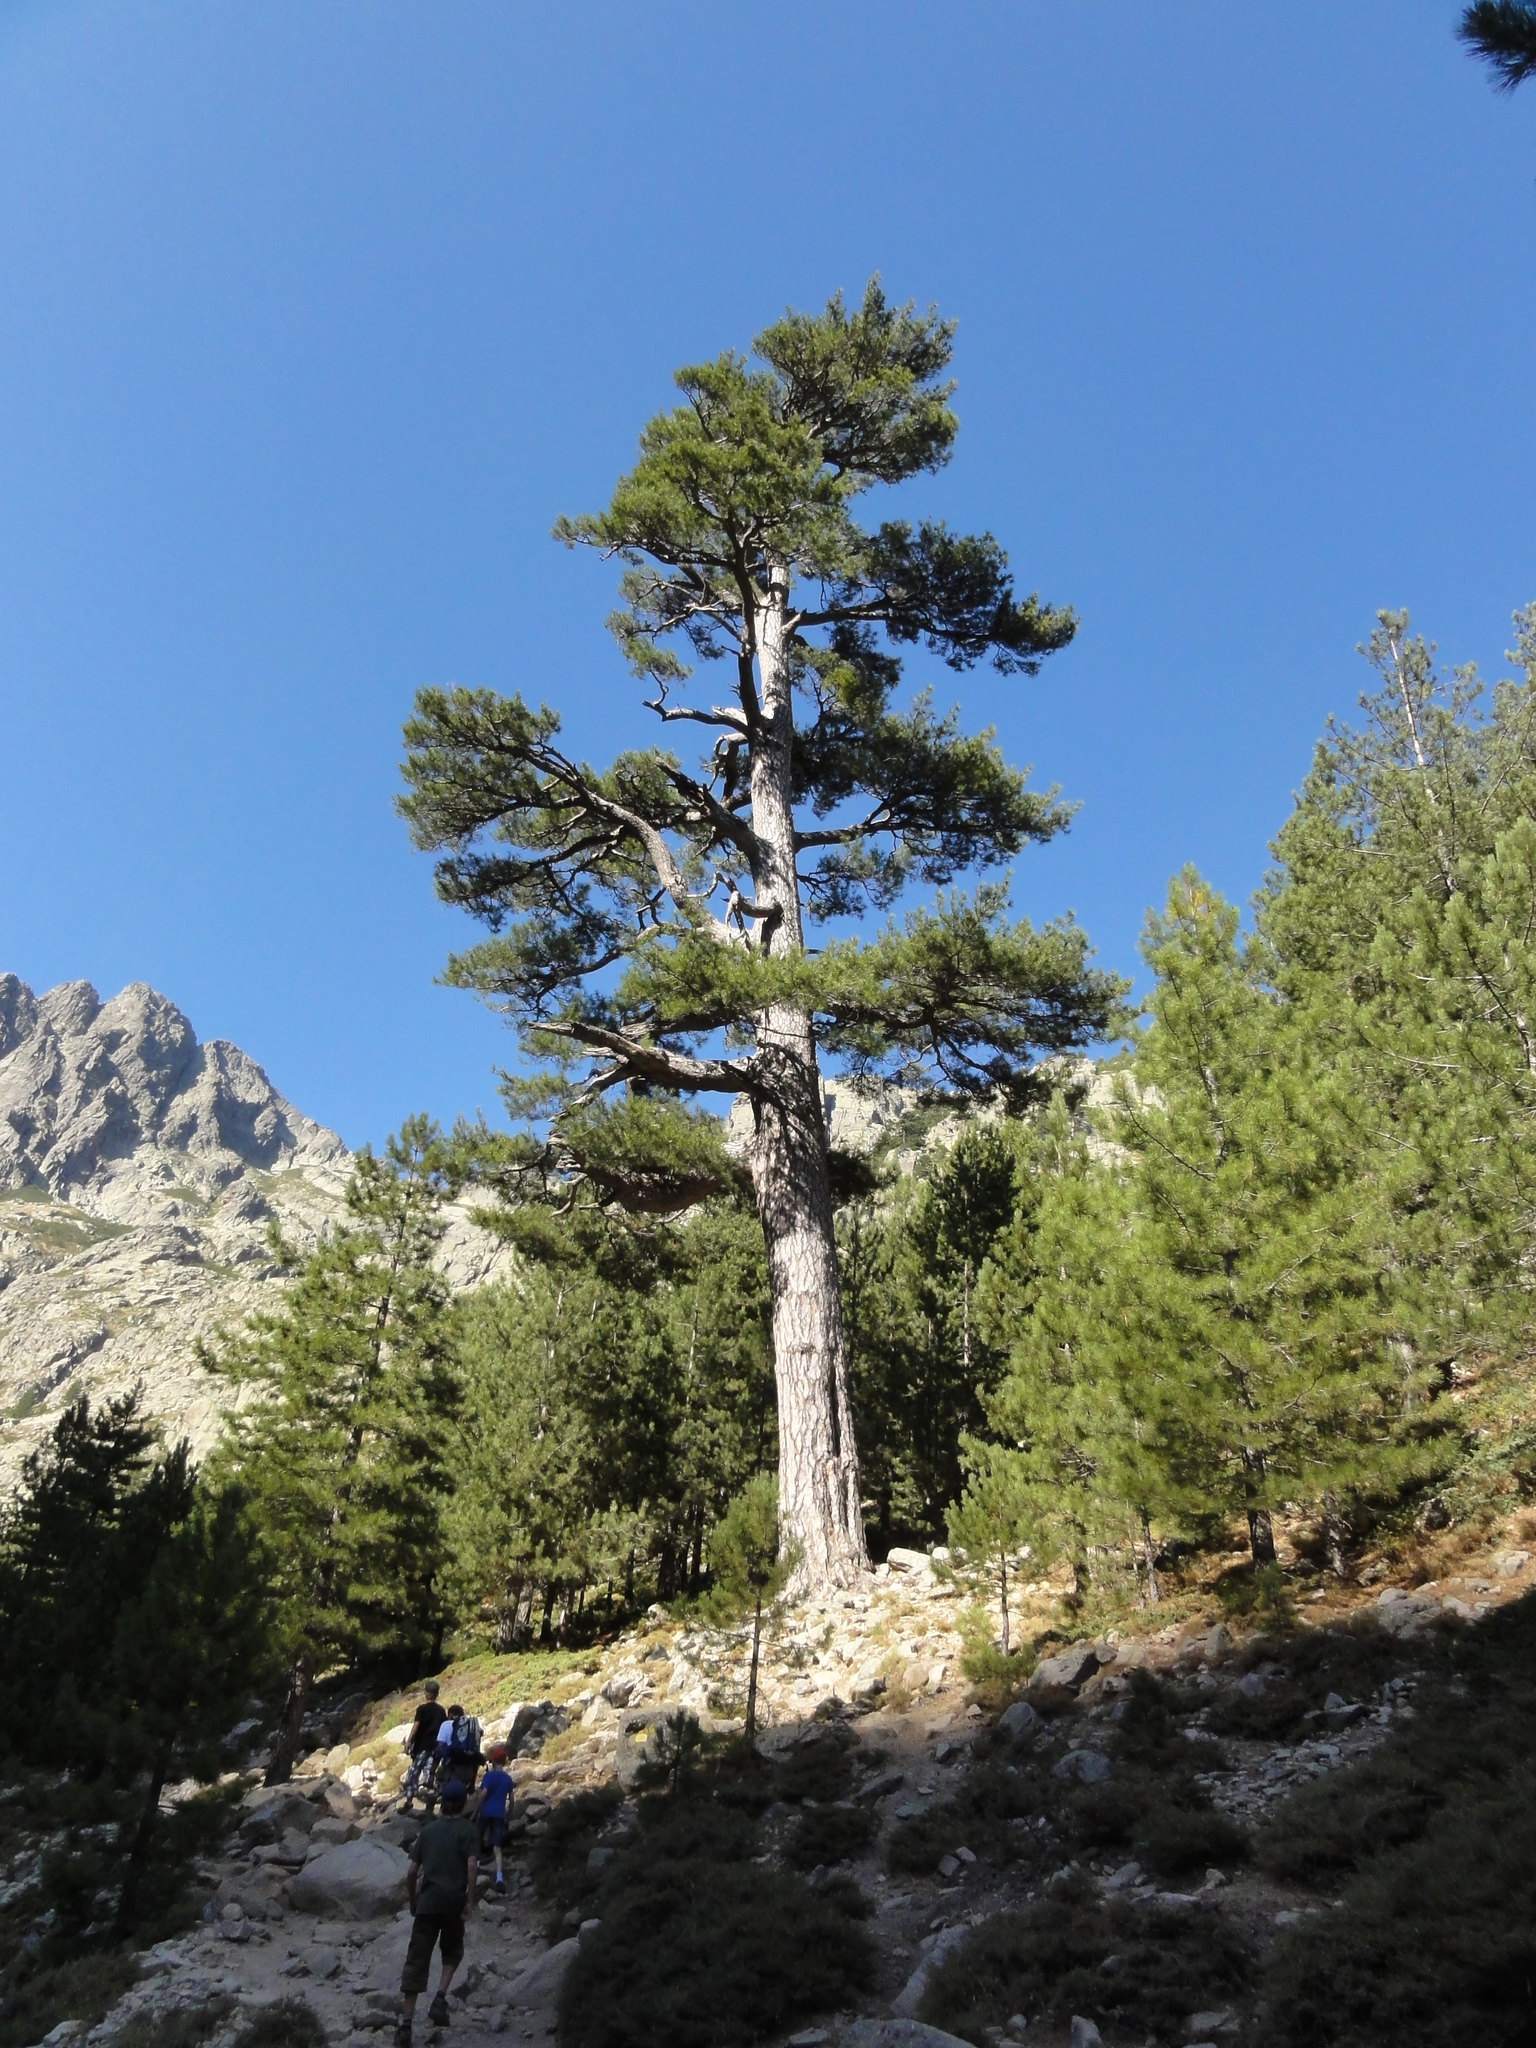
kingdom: Plantae
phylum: Tracheophyta
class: Pinopsida
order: Pinales
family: Pinaceae
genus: Pinus
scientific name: Pinus nigra
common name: Austrian pine
